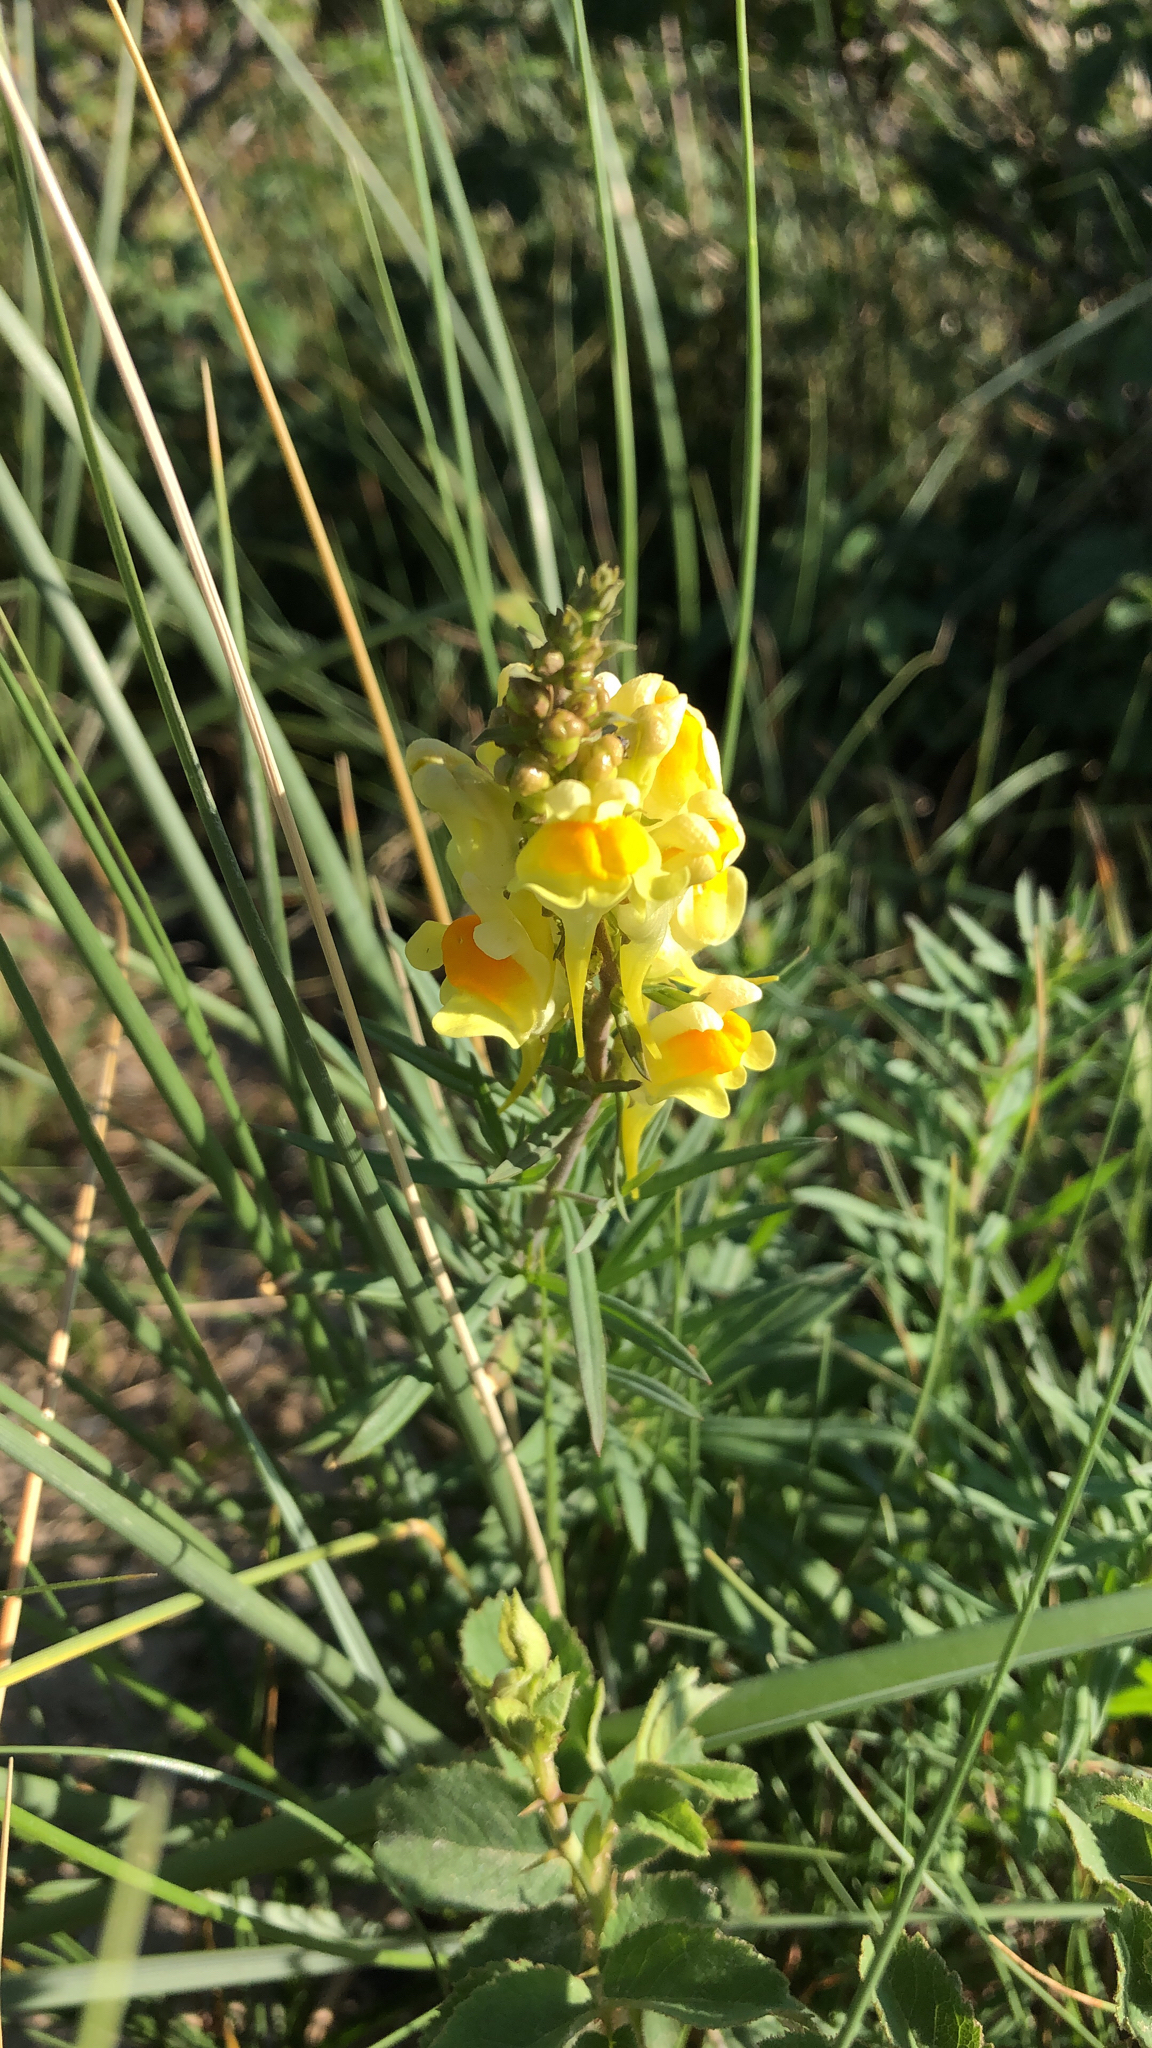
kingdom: Plantae
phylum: Tracheophyta
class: Magnoliopsida
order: Lamiales
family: Plantaginaceae
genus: Linaria
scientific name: Linaria vulgaris
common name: Butter and eggs
